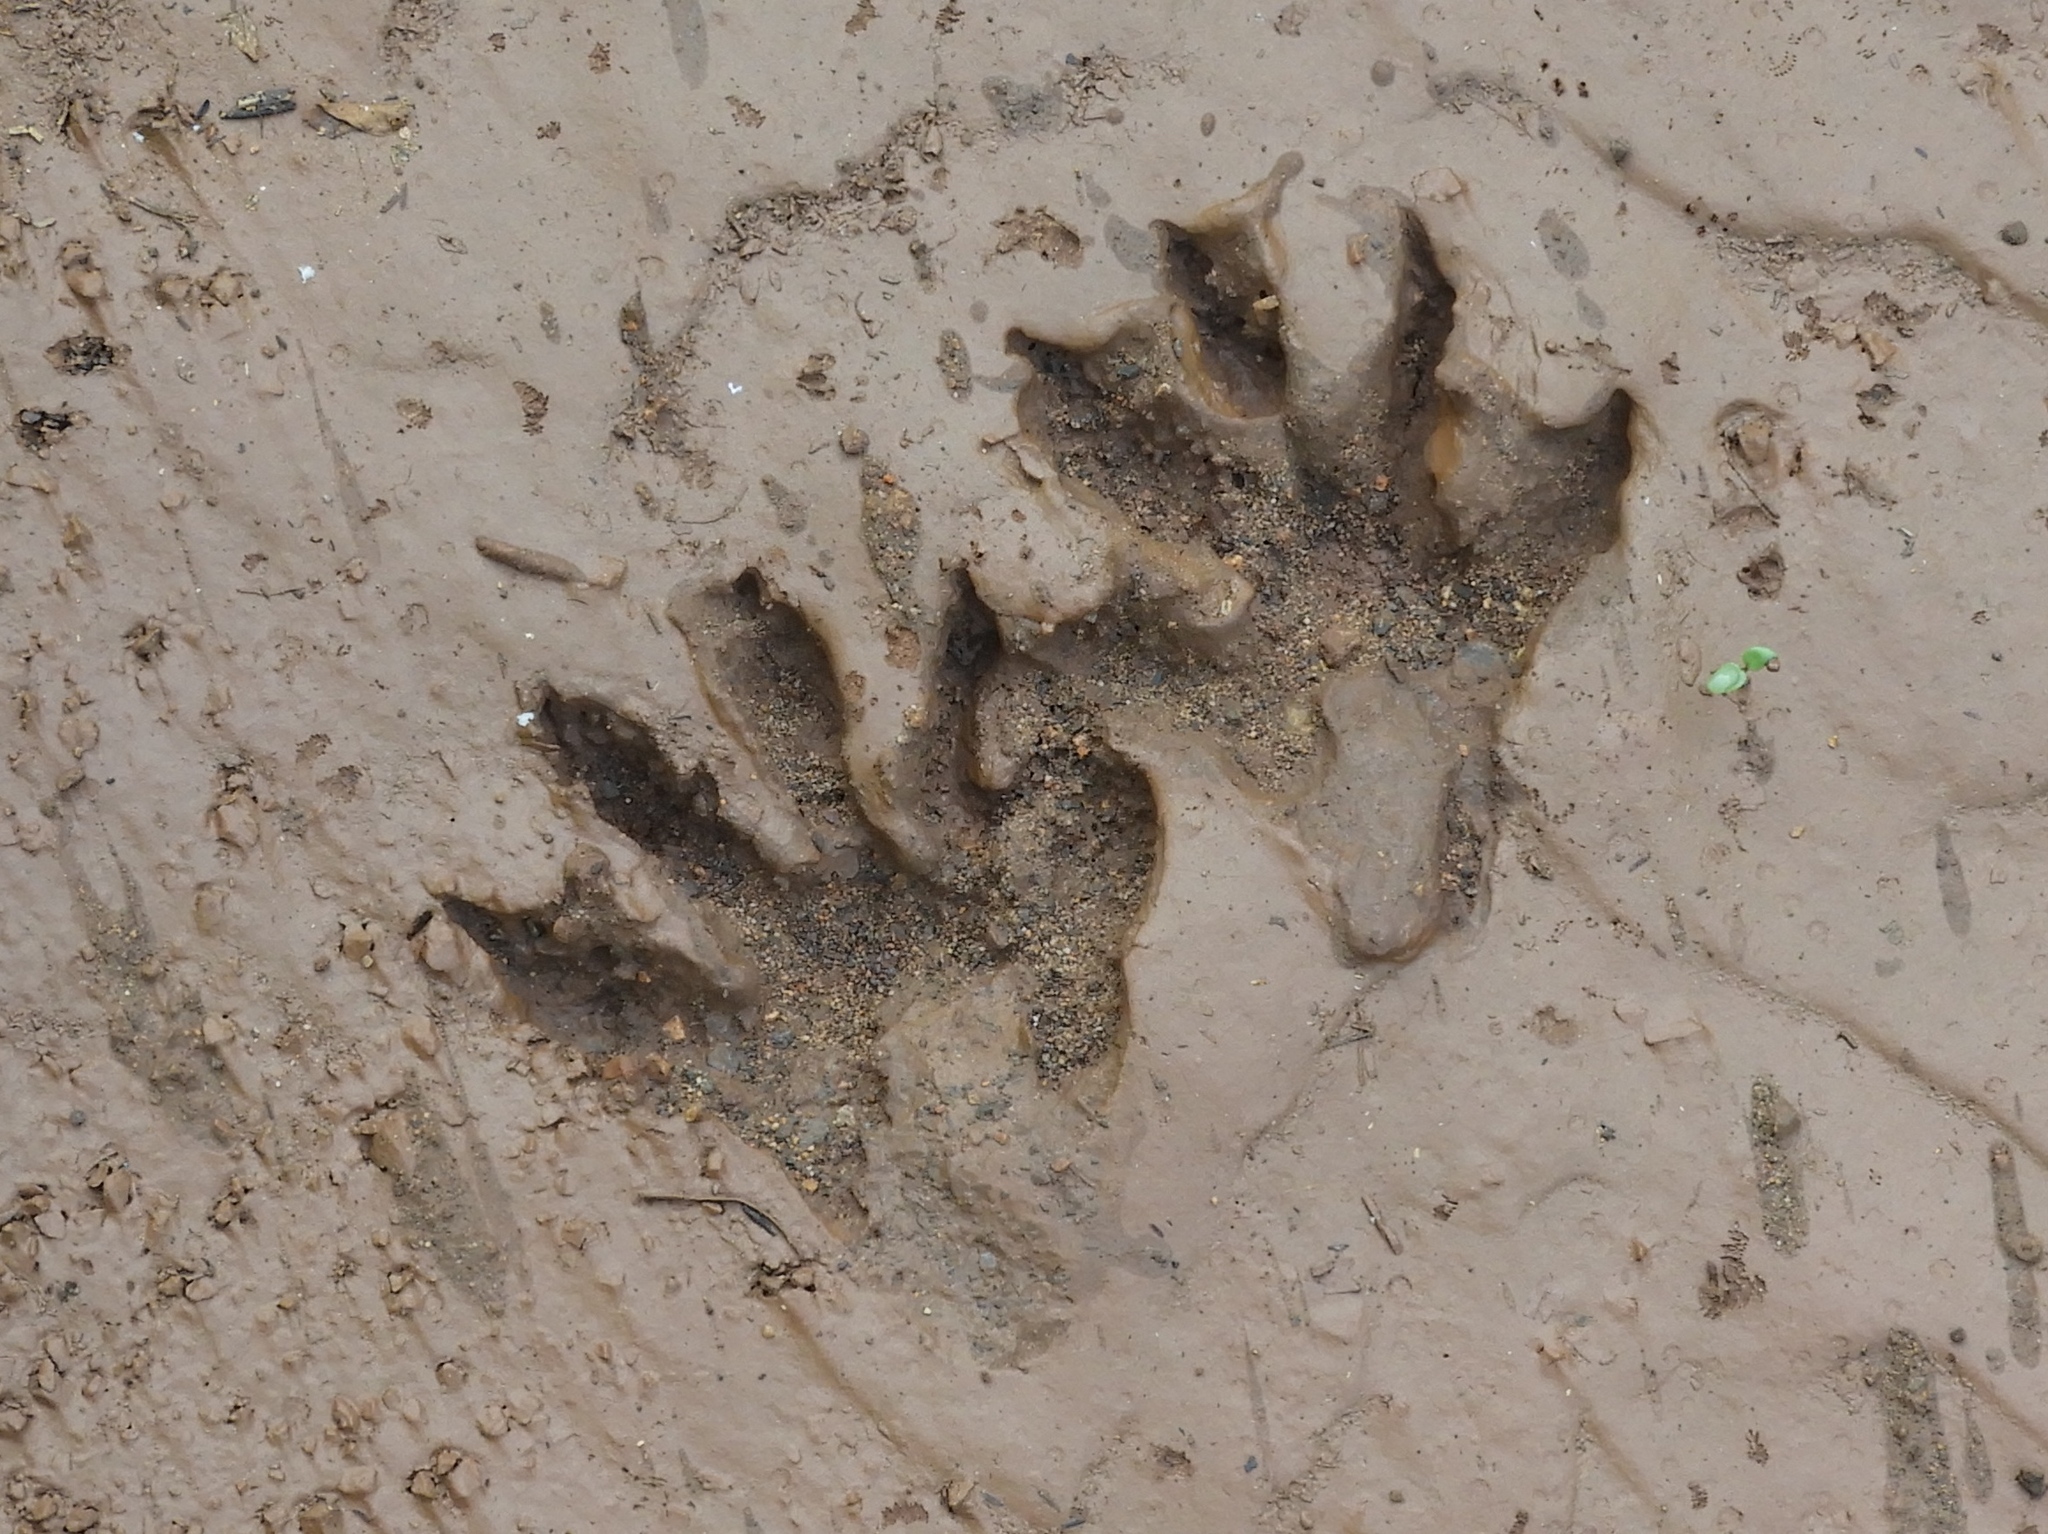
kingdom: Animalia
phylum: Chordata
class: Mammalia
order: Carnivora
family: Procyonidae
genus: Procyon
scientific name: Procyon lotor
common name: Raccoon
